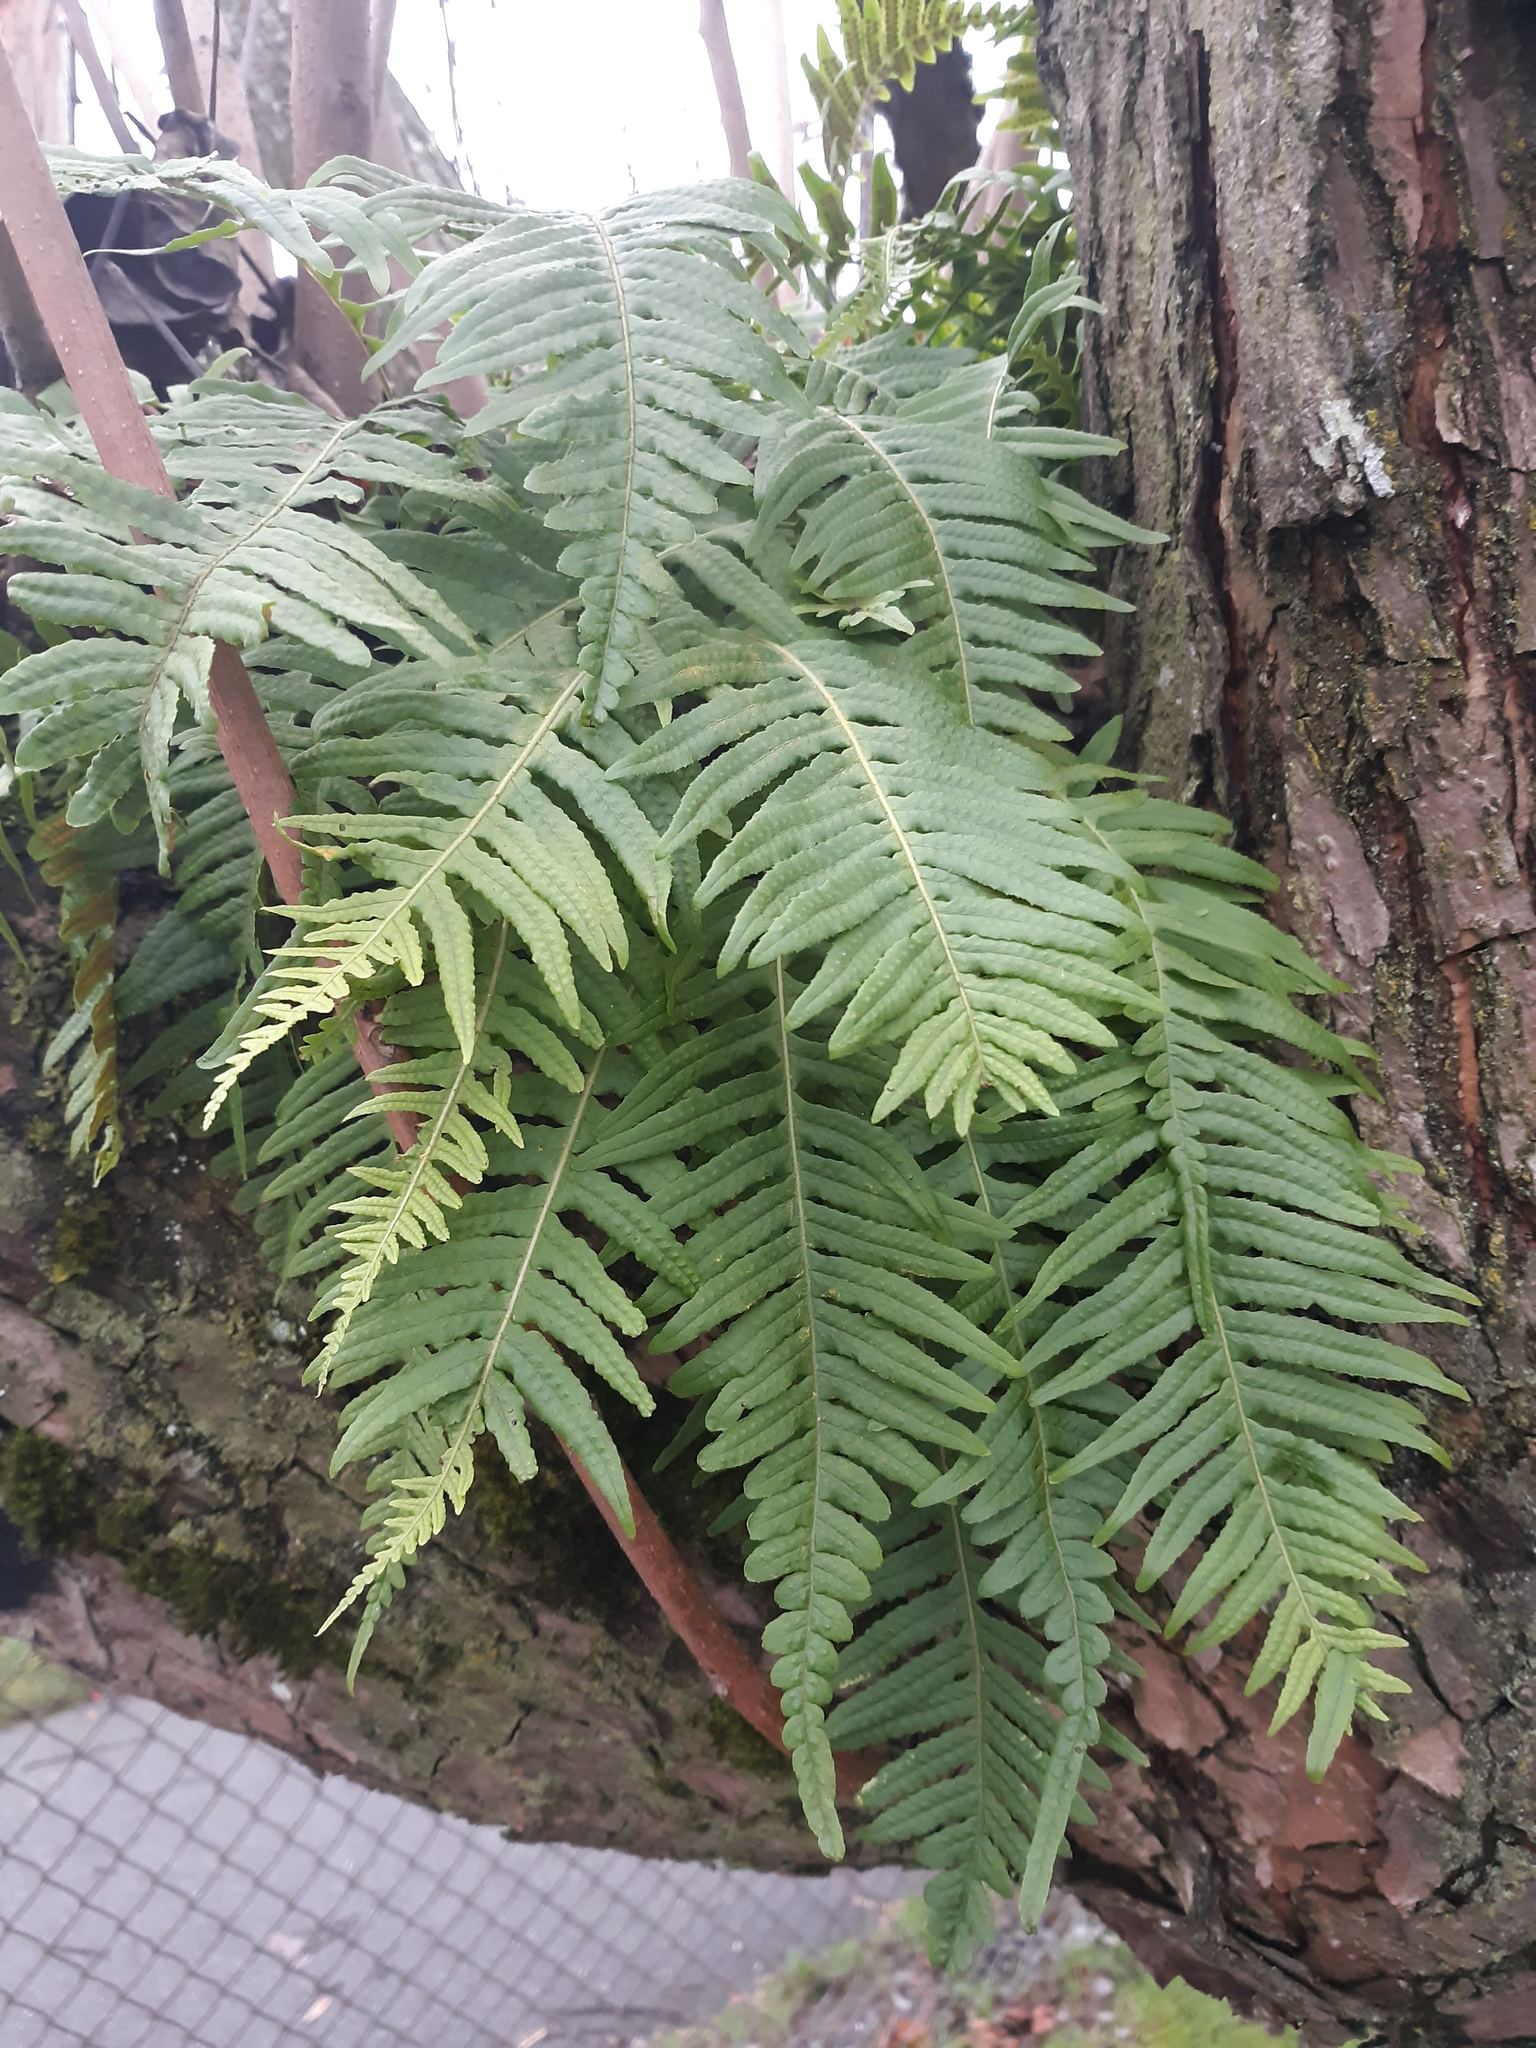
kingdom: Plantae
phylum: Tracheophyta
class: Polypodiopsida
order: Polypodiales
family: Polypodiaceae
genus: Polypodium
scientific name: Polypodium glycyrrhiza
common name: Licorice fern
